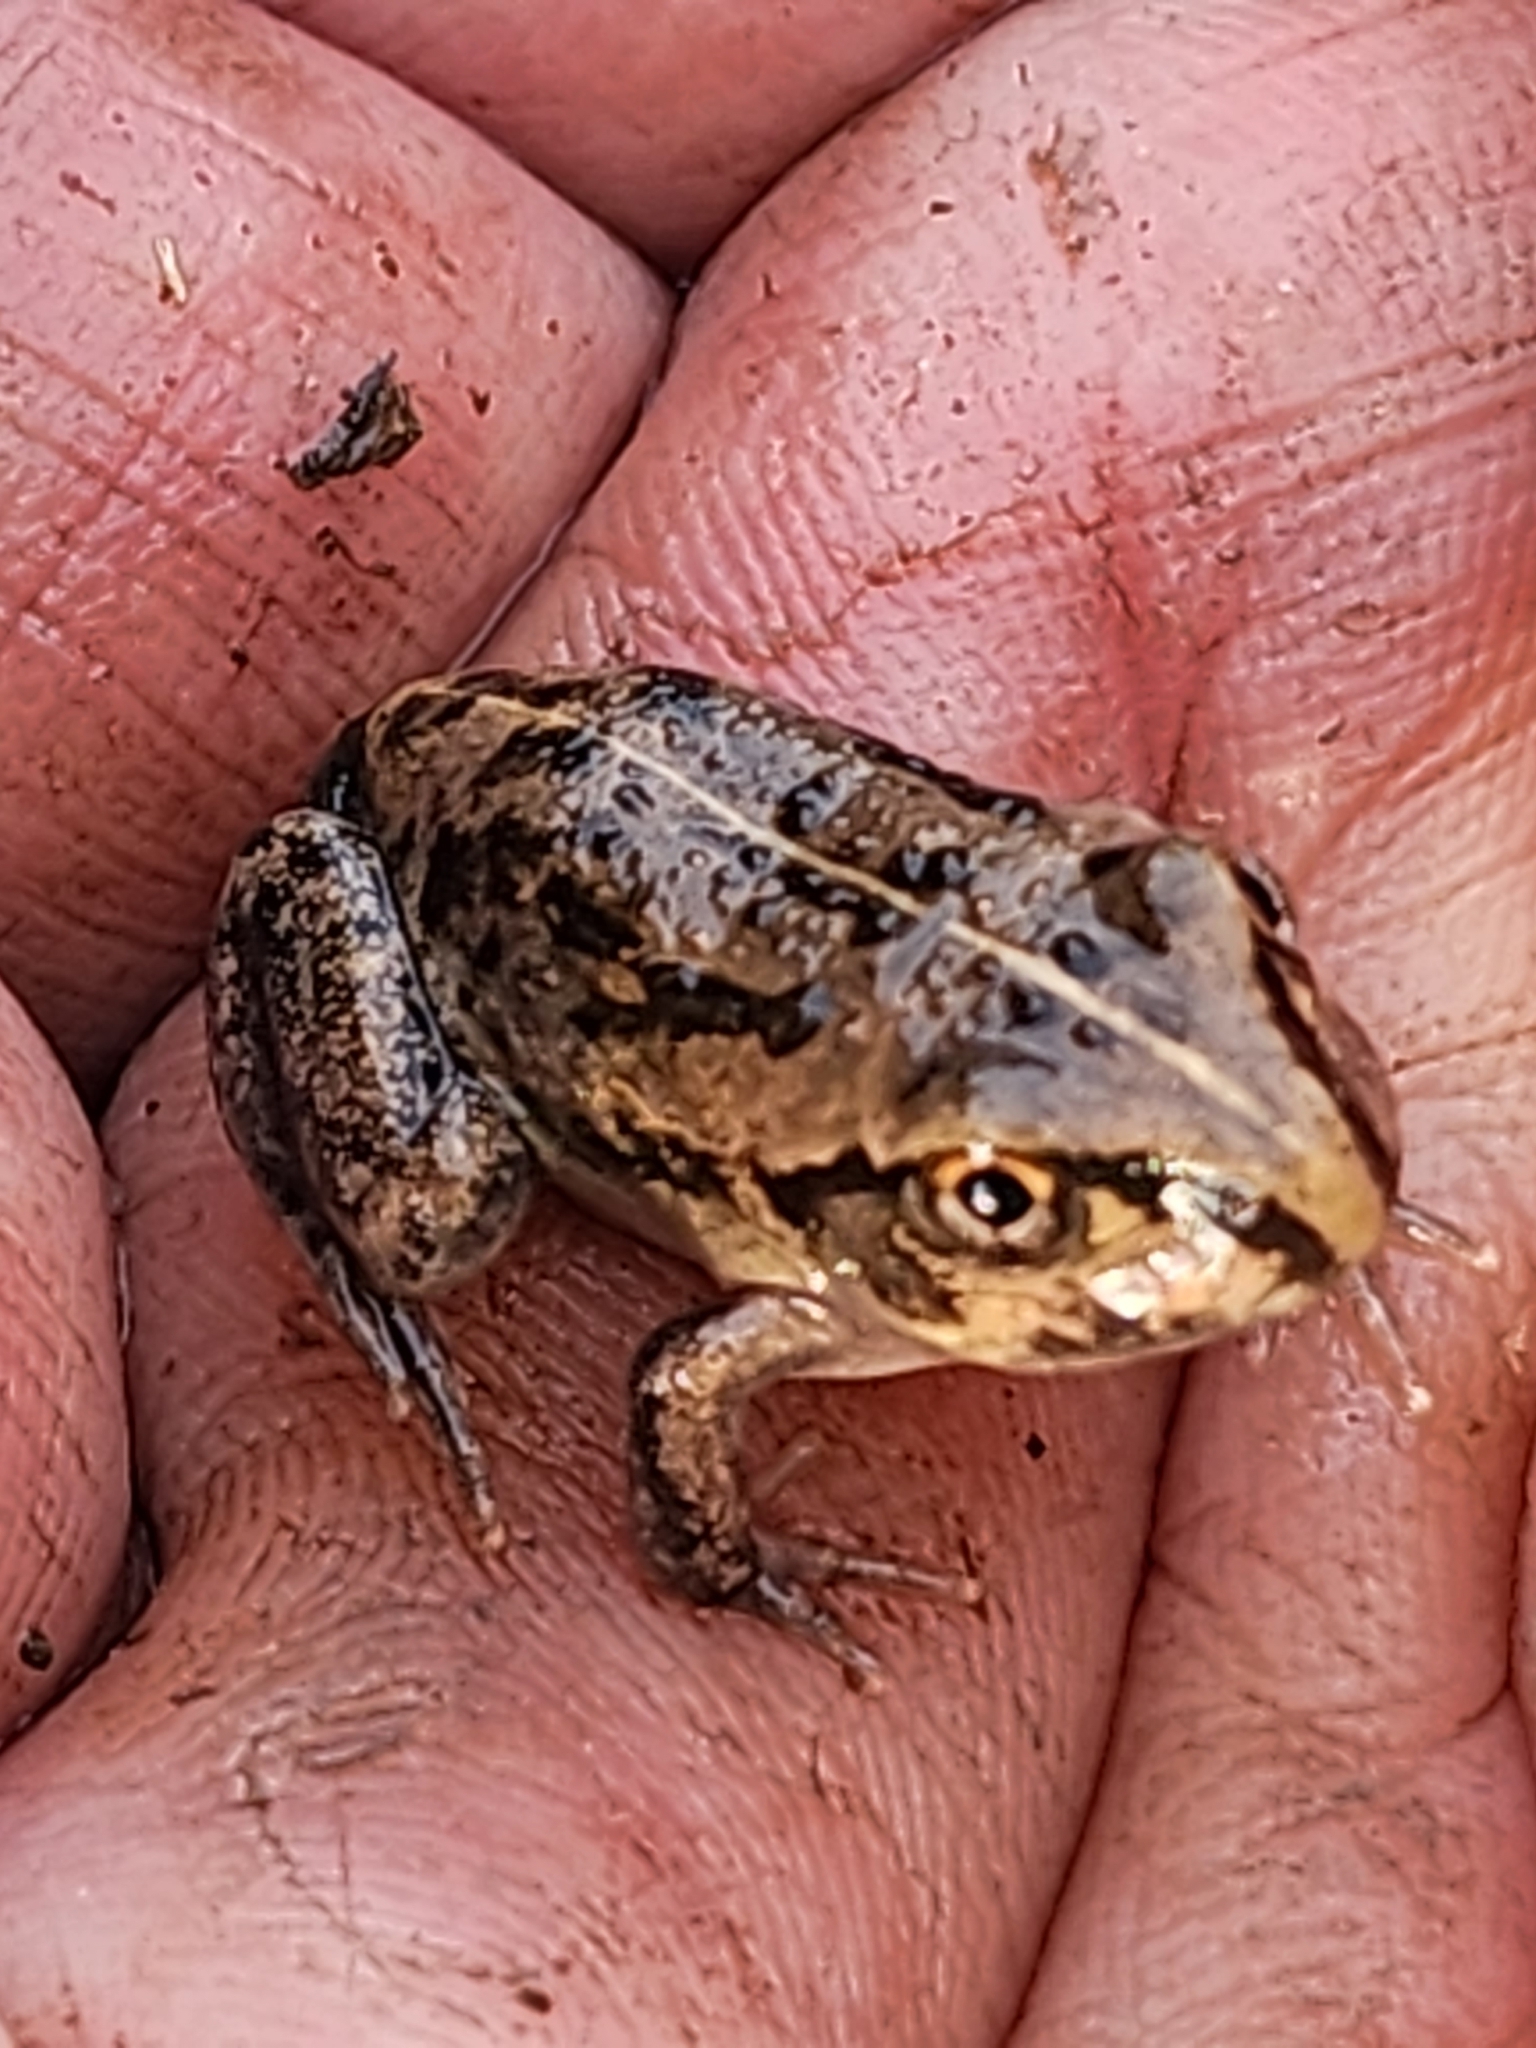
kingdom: Animalia
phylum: Chordata
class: Amphibia
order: Anura
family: Pelodryadidae
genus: Ranoidea
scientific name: Ranoidea brevipes
